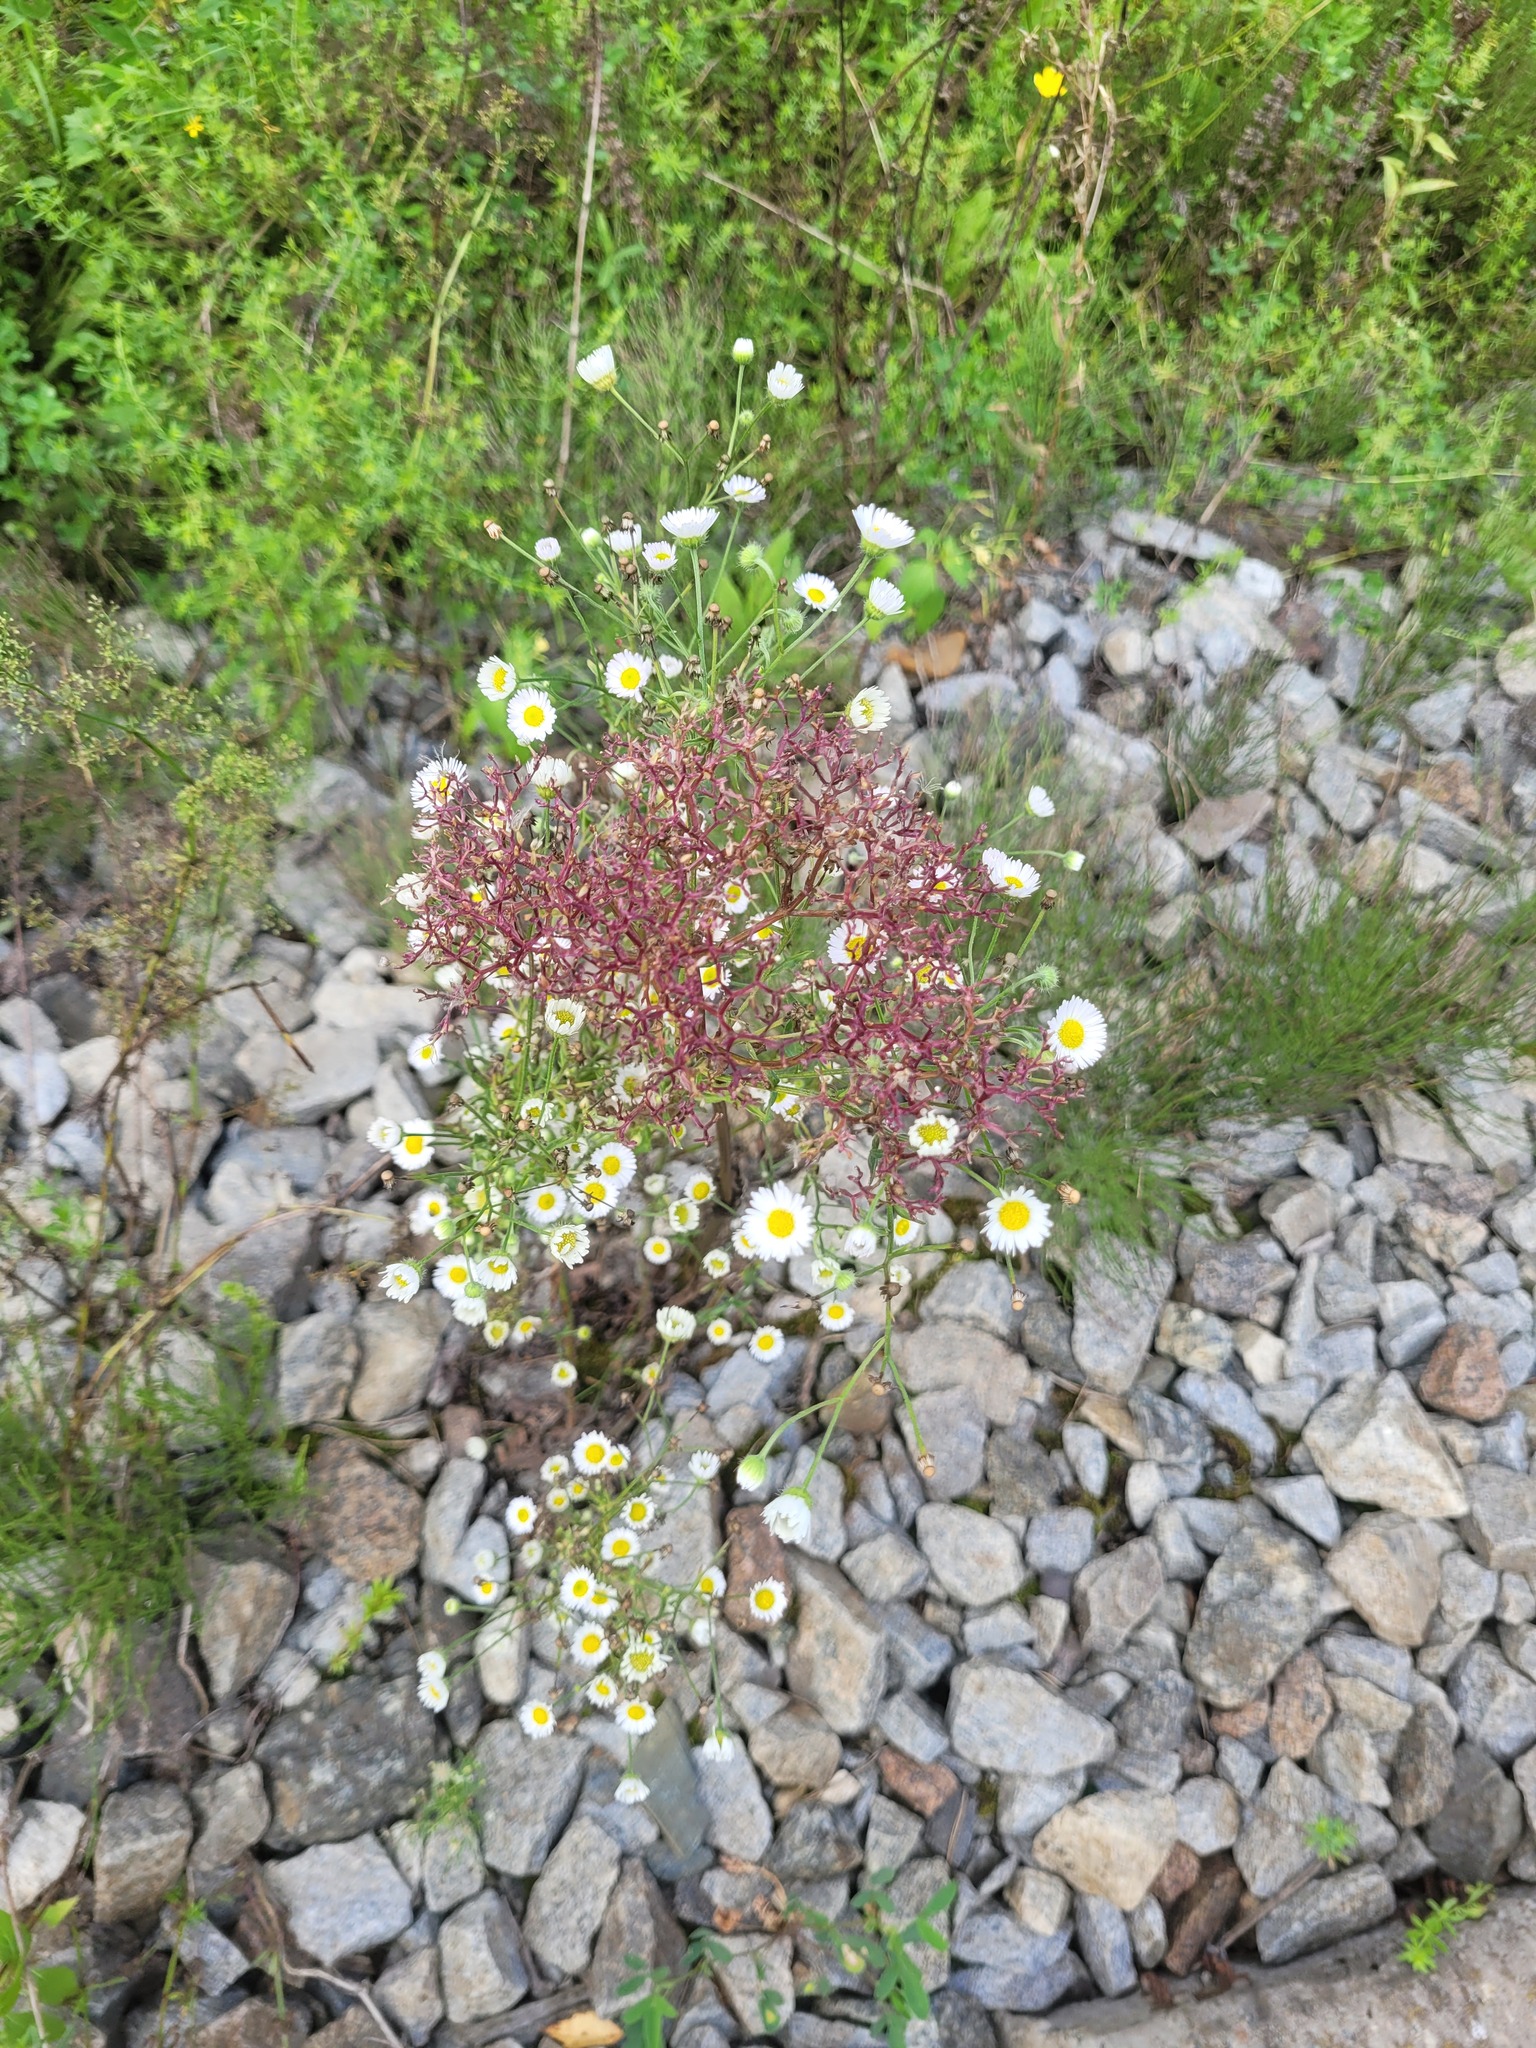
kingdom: Plantae
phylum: Tracheophyta
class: Magnoliopsida
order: Dipsacales
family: Caprifoliaceae
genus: Valeriana
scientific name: Valeriana officinalis
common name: Common valerian
